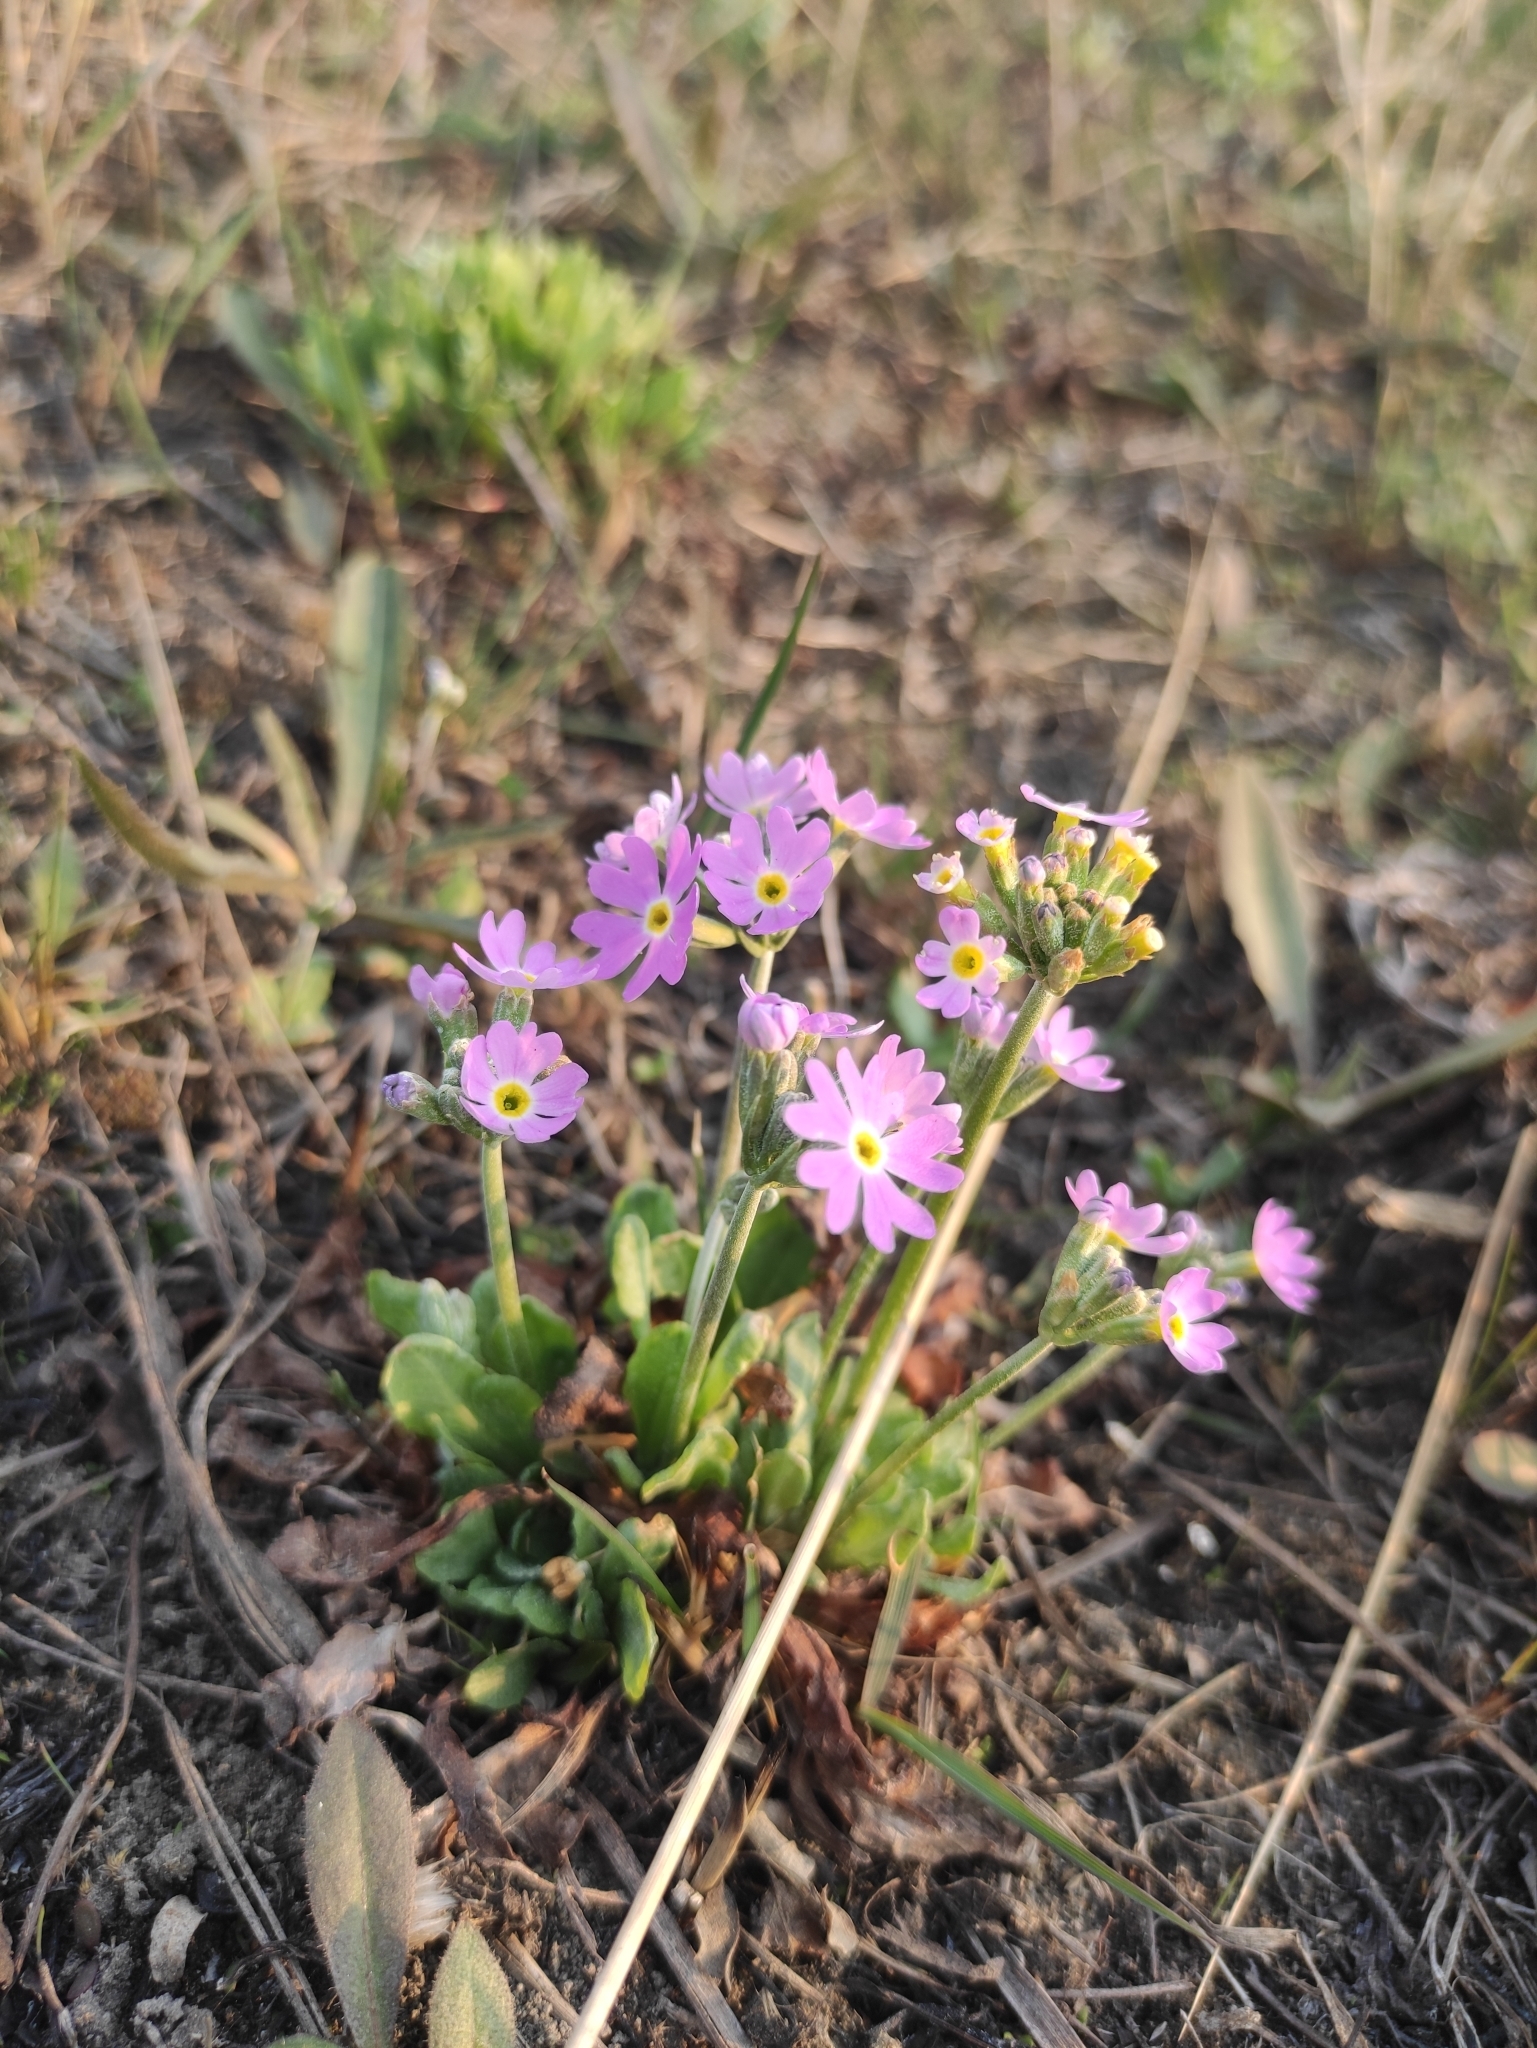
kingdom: Plantae
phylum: Tracheophyta
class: Magnoliopsida
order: Ericales
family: Primulaceae
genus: Primula
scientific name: Primula farinosa
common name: Bird's-eye primrose
